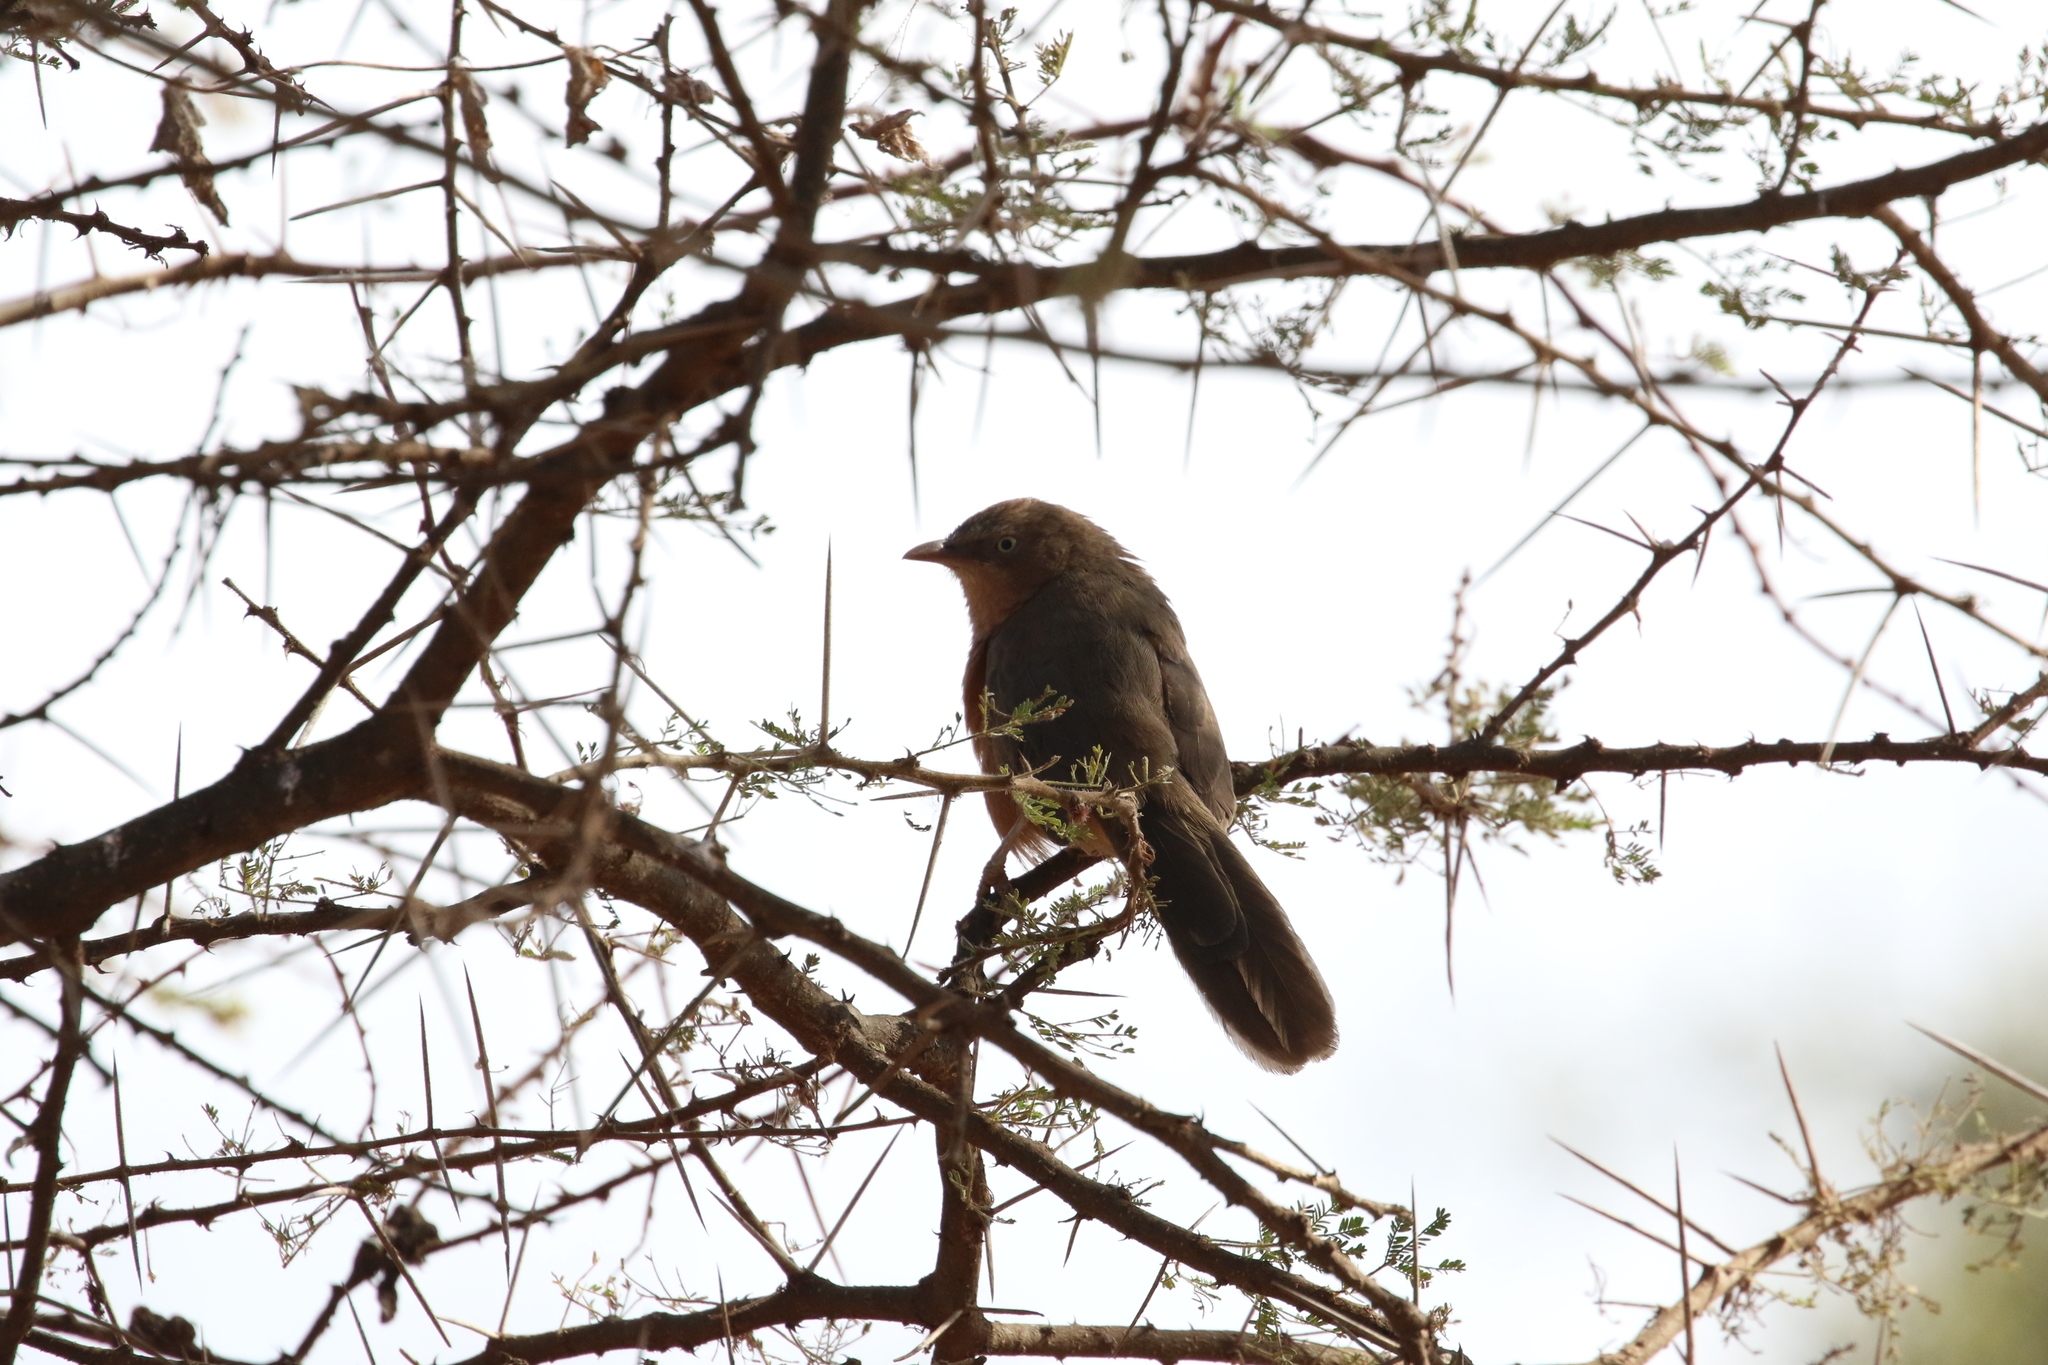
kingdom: Animalia
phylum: Chordata
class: Aves
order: Passeriformes
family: Leiothrichidae
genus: Turdoides
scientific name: Turdoides rubiginosa
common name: Rufous chatterer
